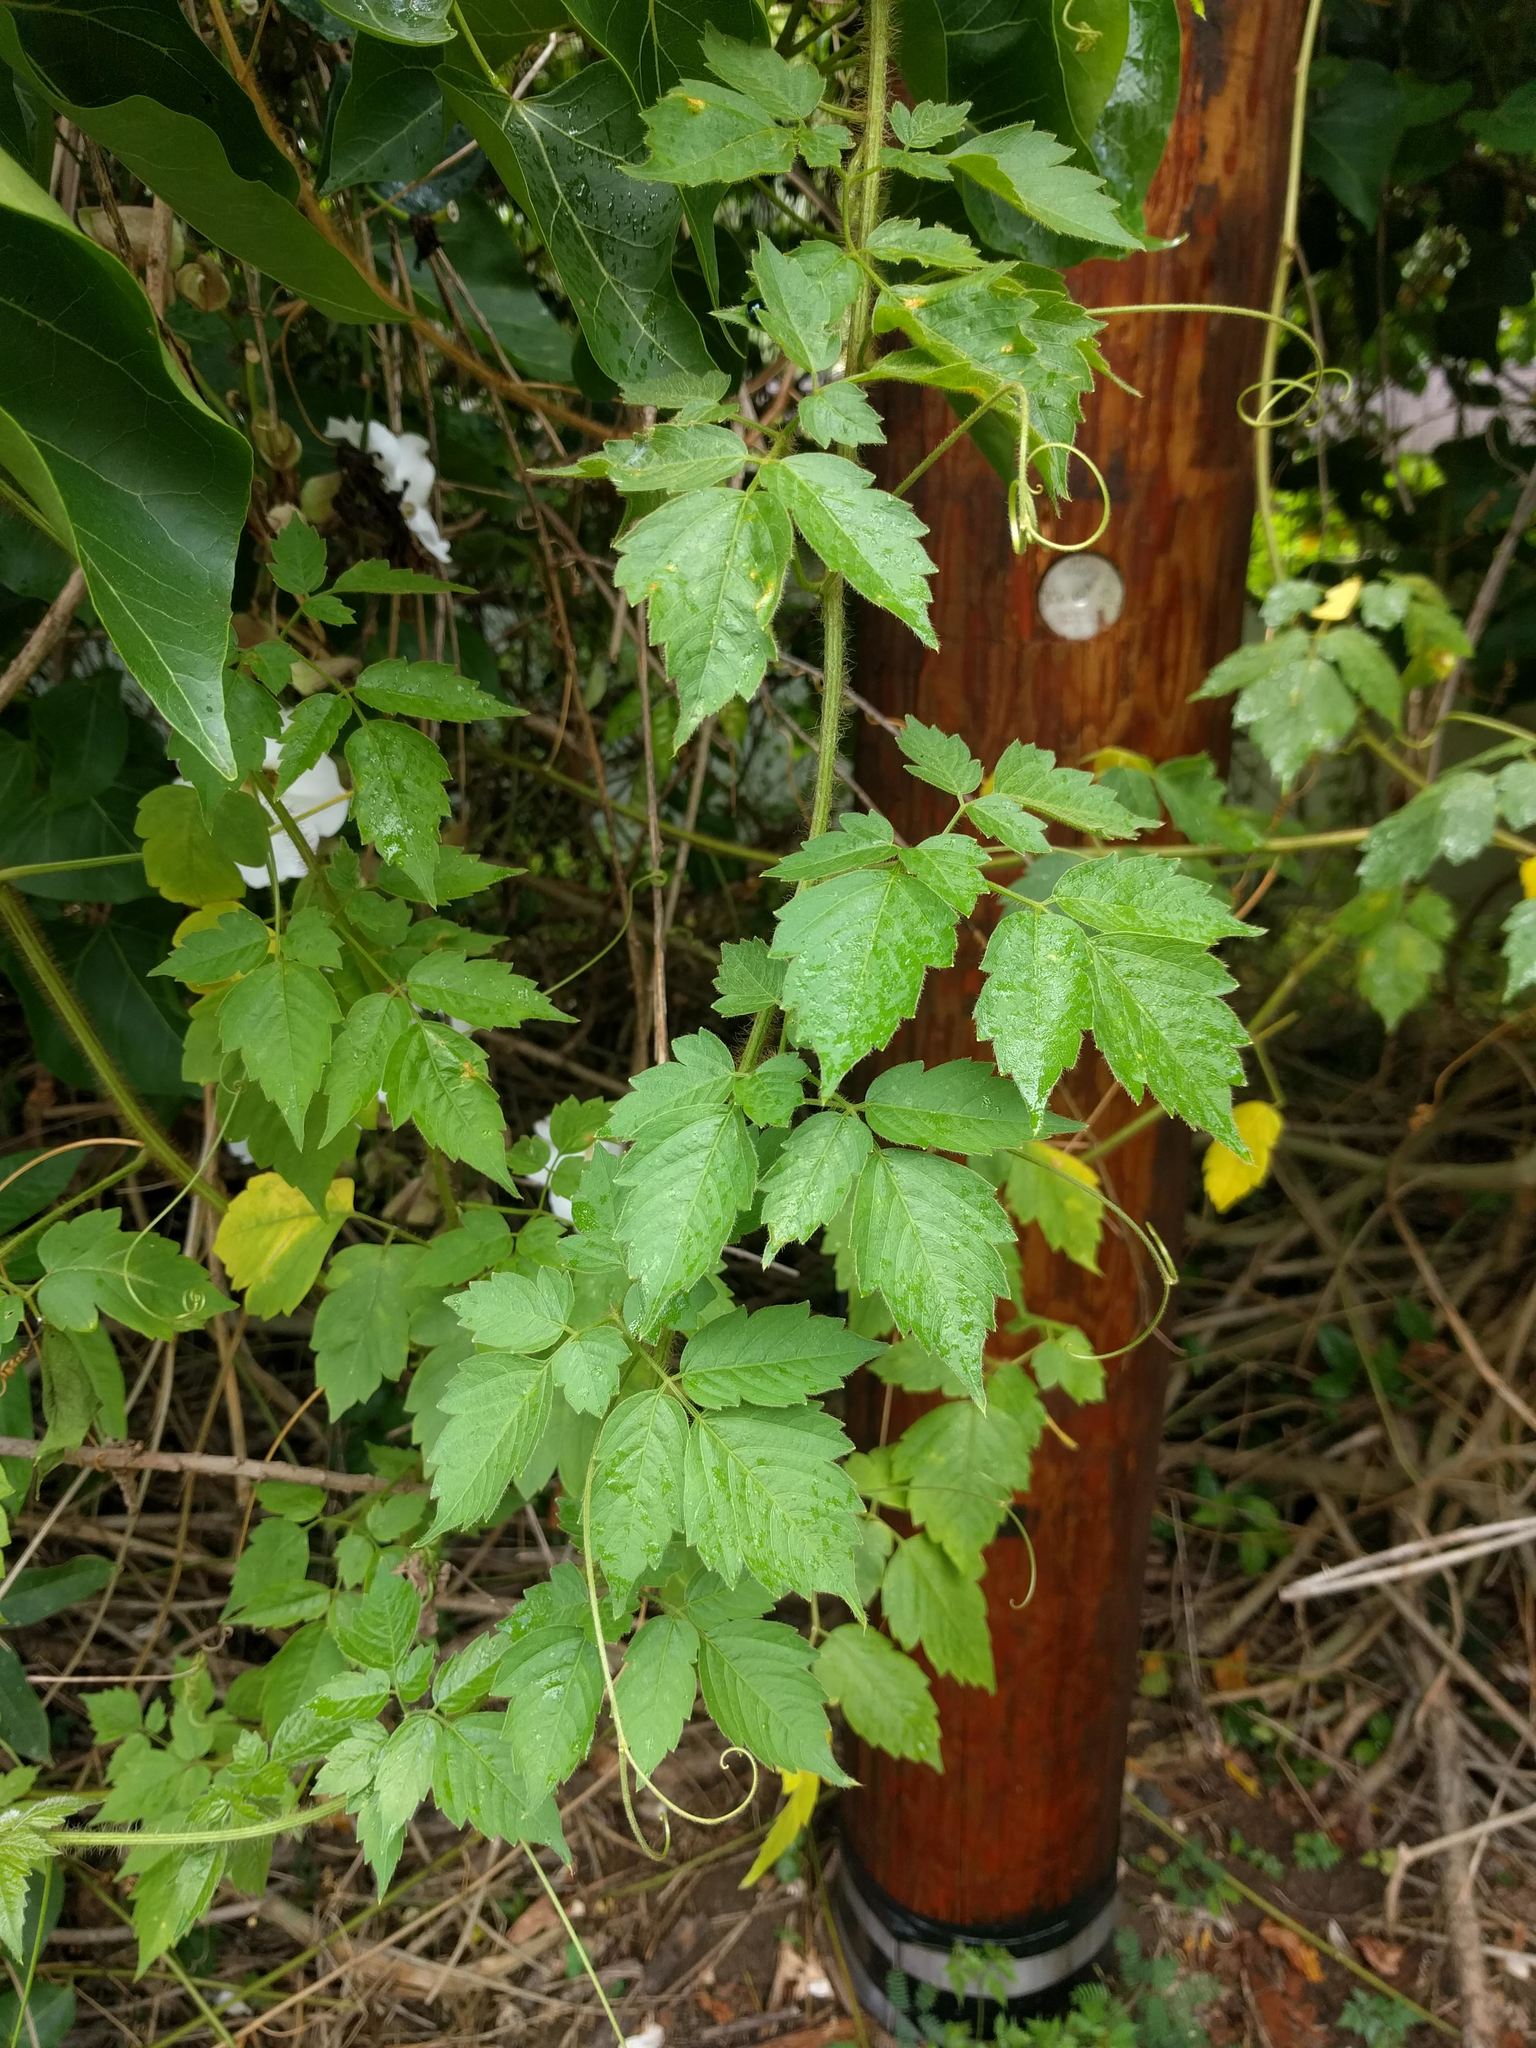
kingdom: Plantae
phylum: Tracheophyta
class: Magnoliopsida
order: Sapindales
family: Sapindaceae
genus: Cardiospermum
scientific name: Cardiospermum grandiflorum
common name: Balloon vine
